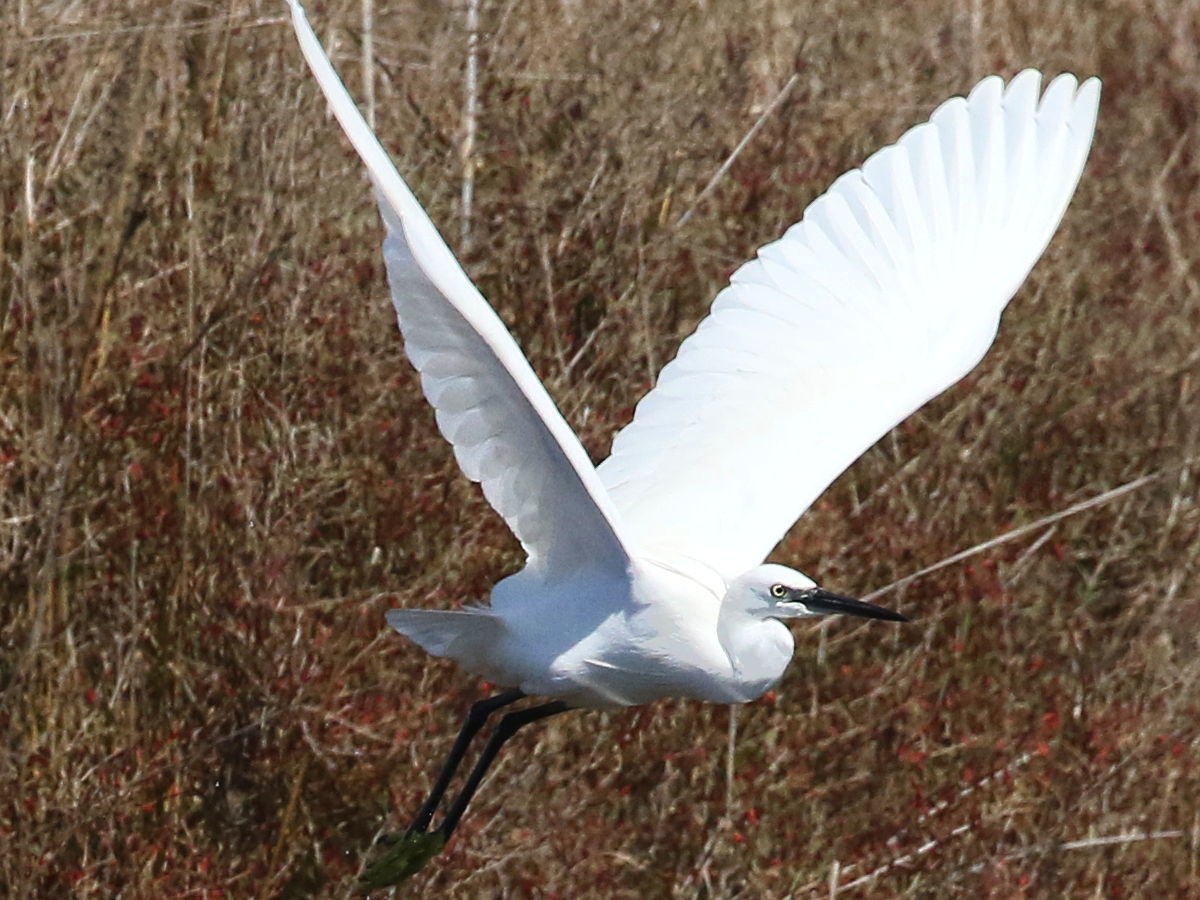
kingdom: Animalia
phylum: Chordata
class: Aves
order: Pelecaniformes
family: Ardeidae
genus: Egretta
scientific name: Egretta garzetta
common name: Little egret
